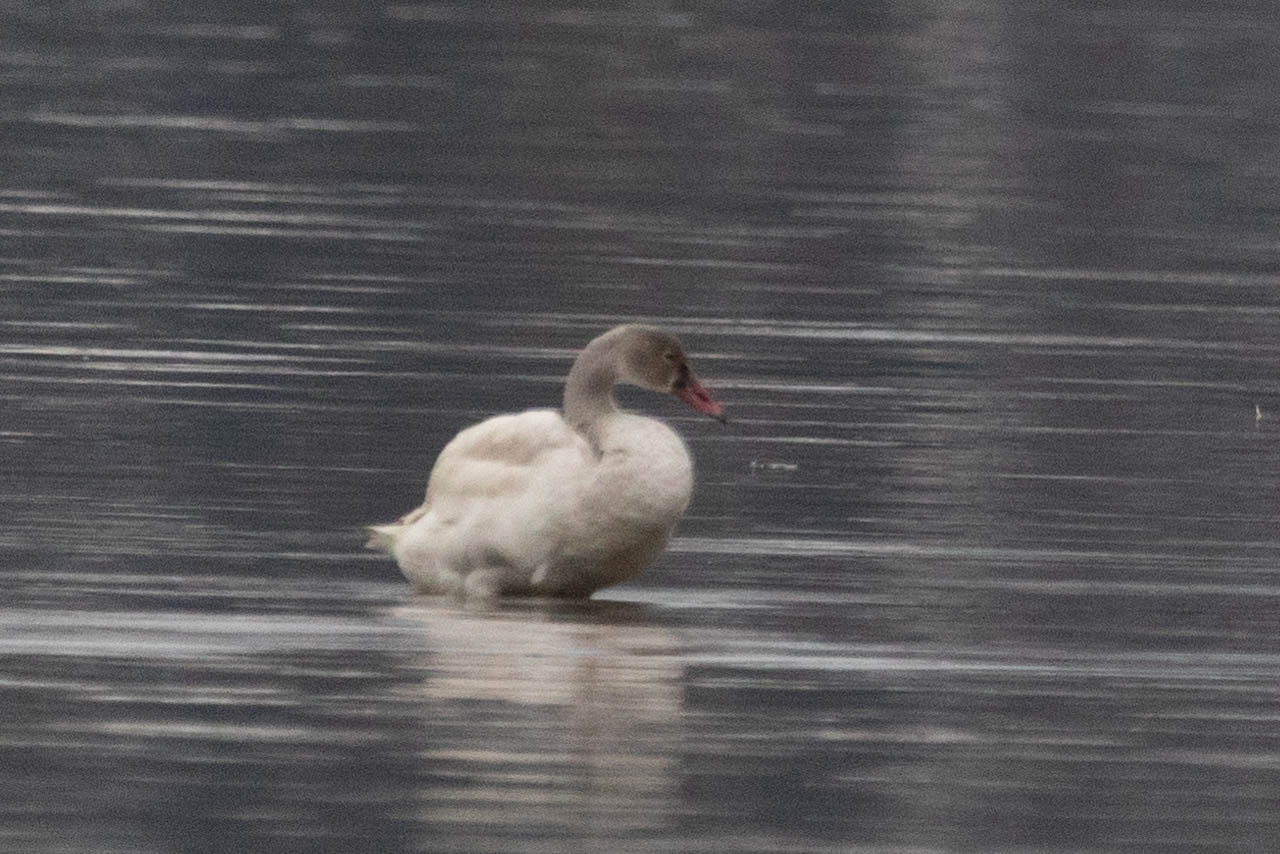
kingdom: Animalia
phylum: Chordata
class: Aves
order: Anseriformes
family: Anatidae
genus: Cygnus
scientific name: Cygnus columbianus
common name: Tundra swan
